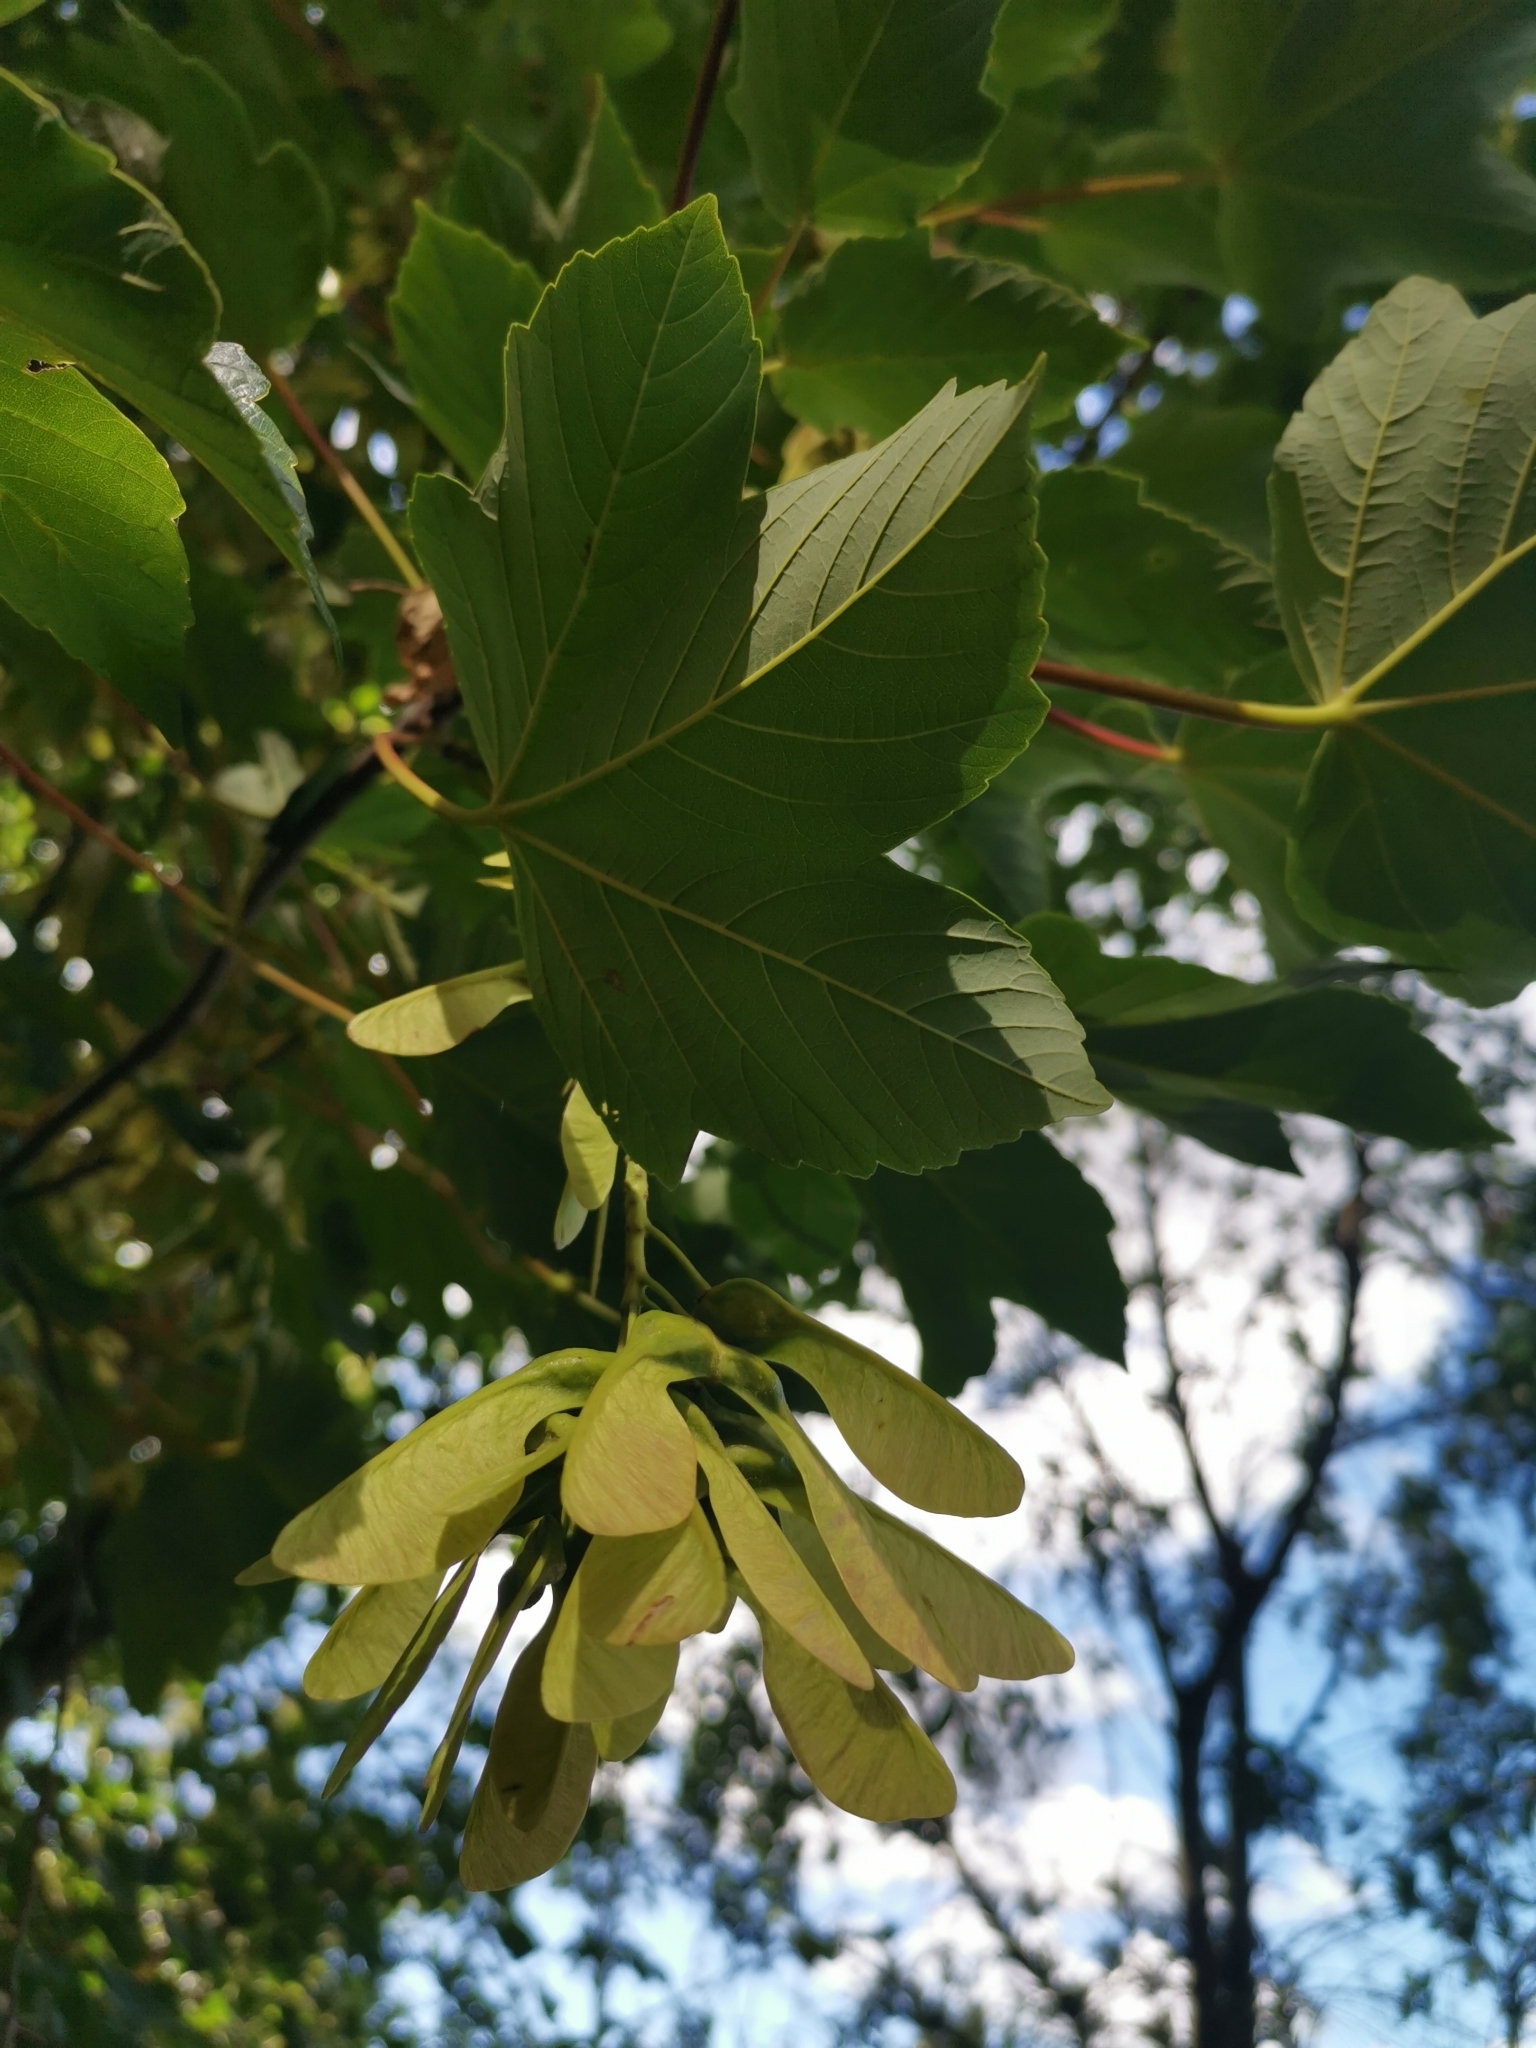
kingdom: Plantae
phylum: Tracheophyta
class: Magnoliopsida
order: Sapindales
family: Sapindaceae
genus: Acer
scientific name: Acer pseudoplatanus
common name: Sycamore
